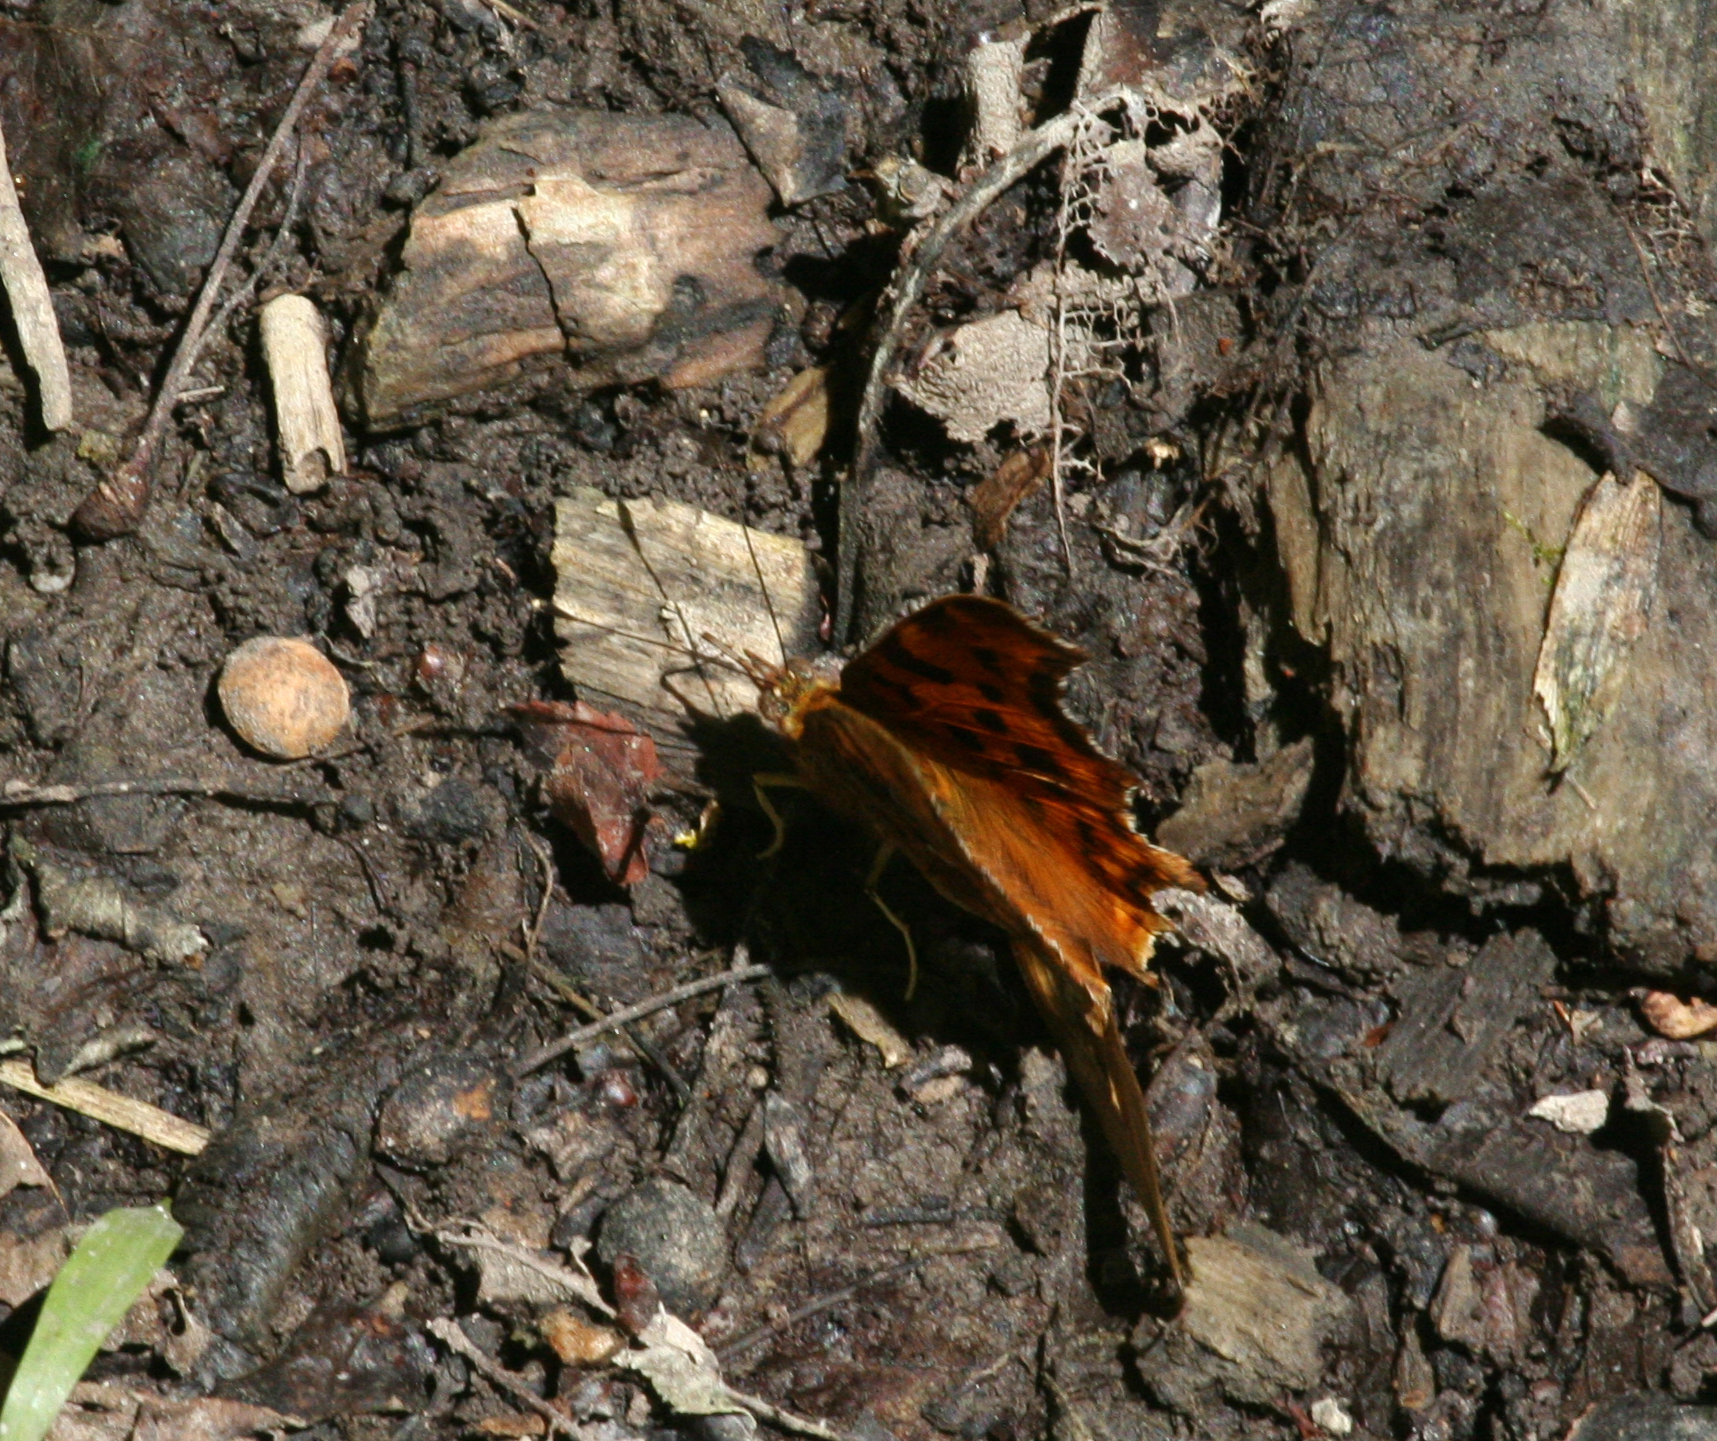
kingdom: Animalia
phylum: Arthropoda
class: Insecta
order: Lepidoptera
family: Nymphalidae
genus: Polygonia
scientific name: Polygonia c-album
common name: Comma
